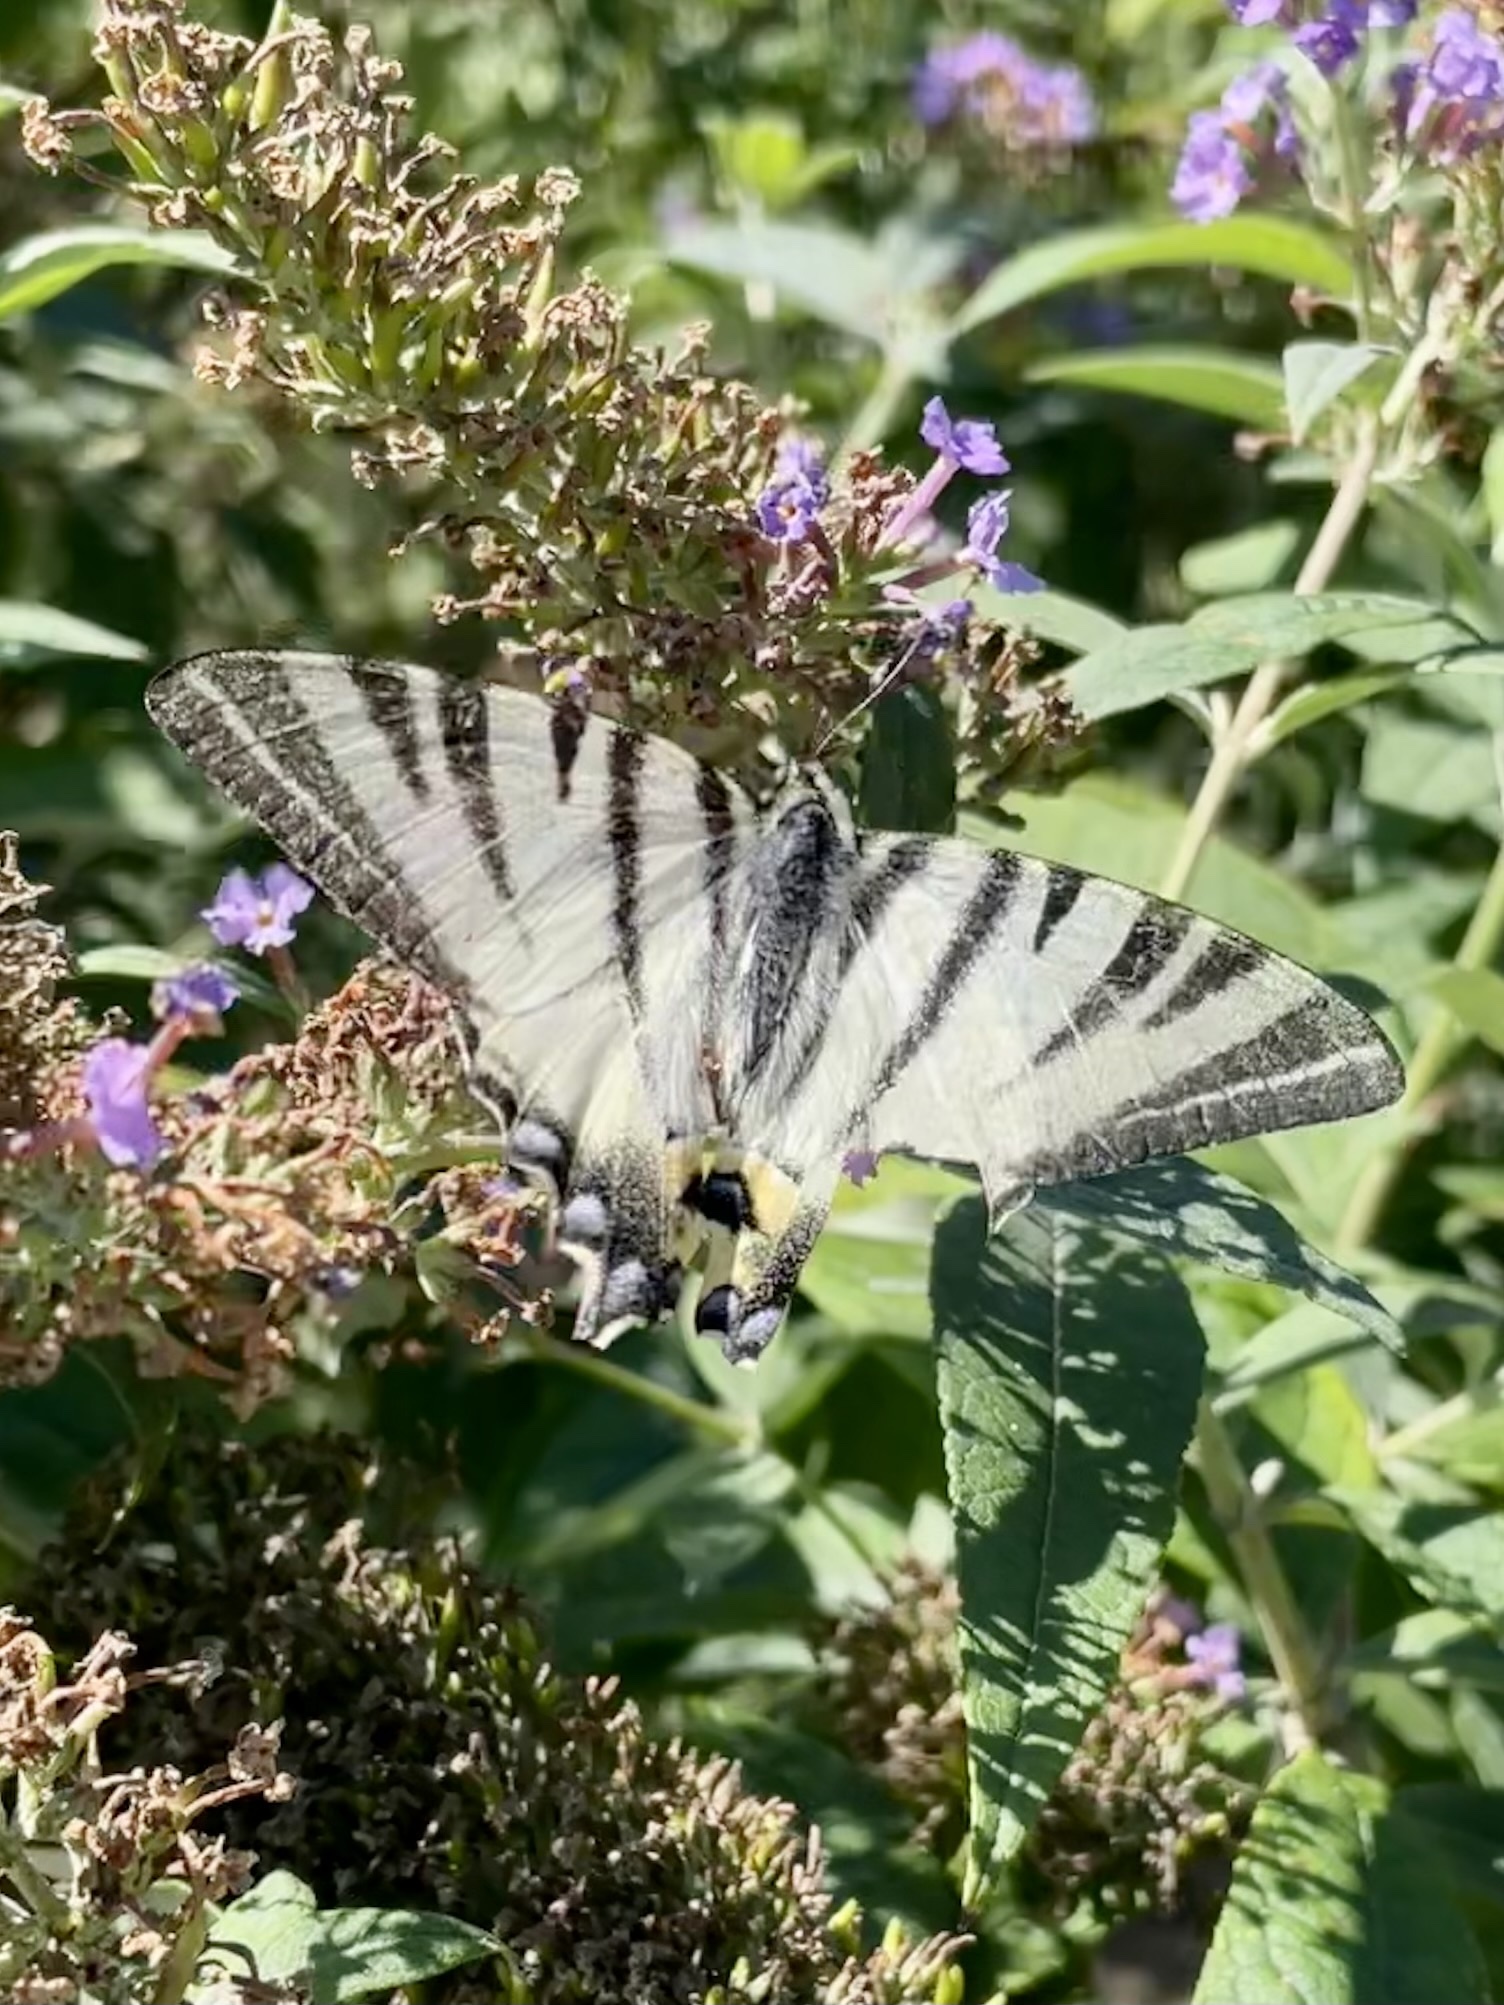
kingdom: Animalia
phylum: Arthropoda
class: Insecta
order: Lepidoptera
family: Papilionidae
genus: Iphiclides
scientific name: Iphiclides podalirius
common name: Scarce swallowtail
